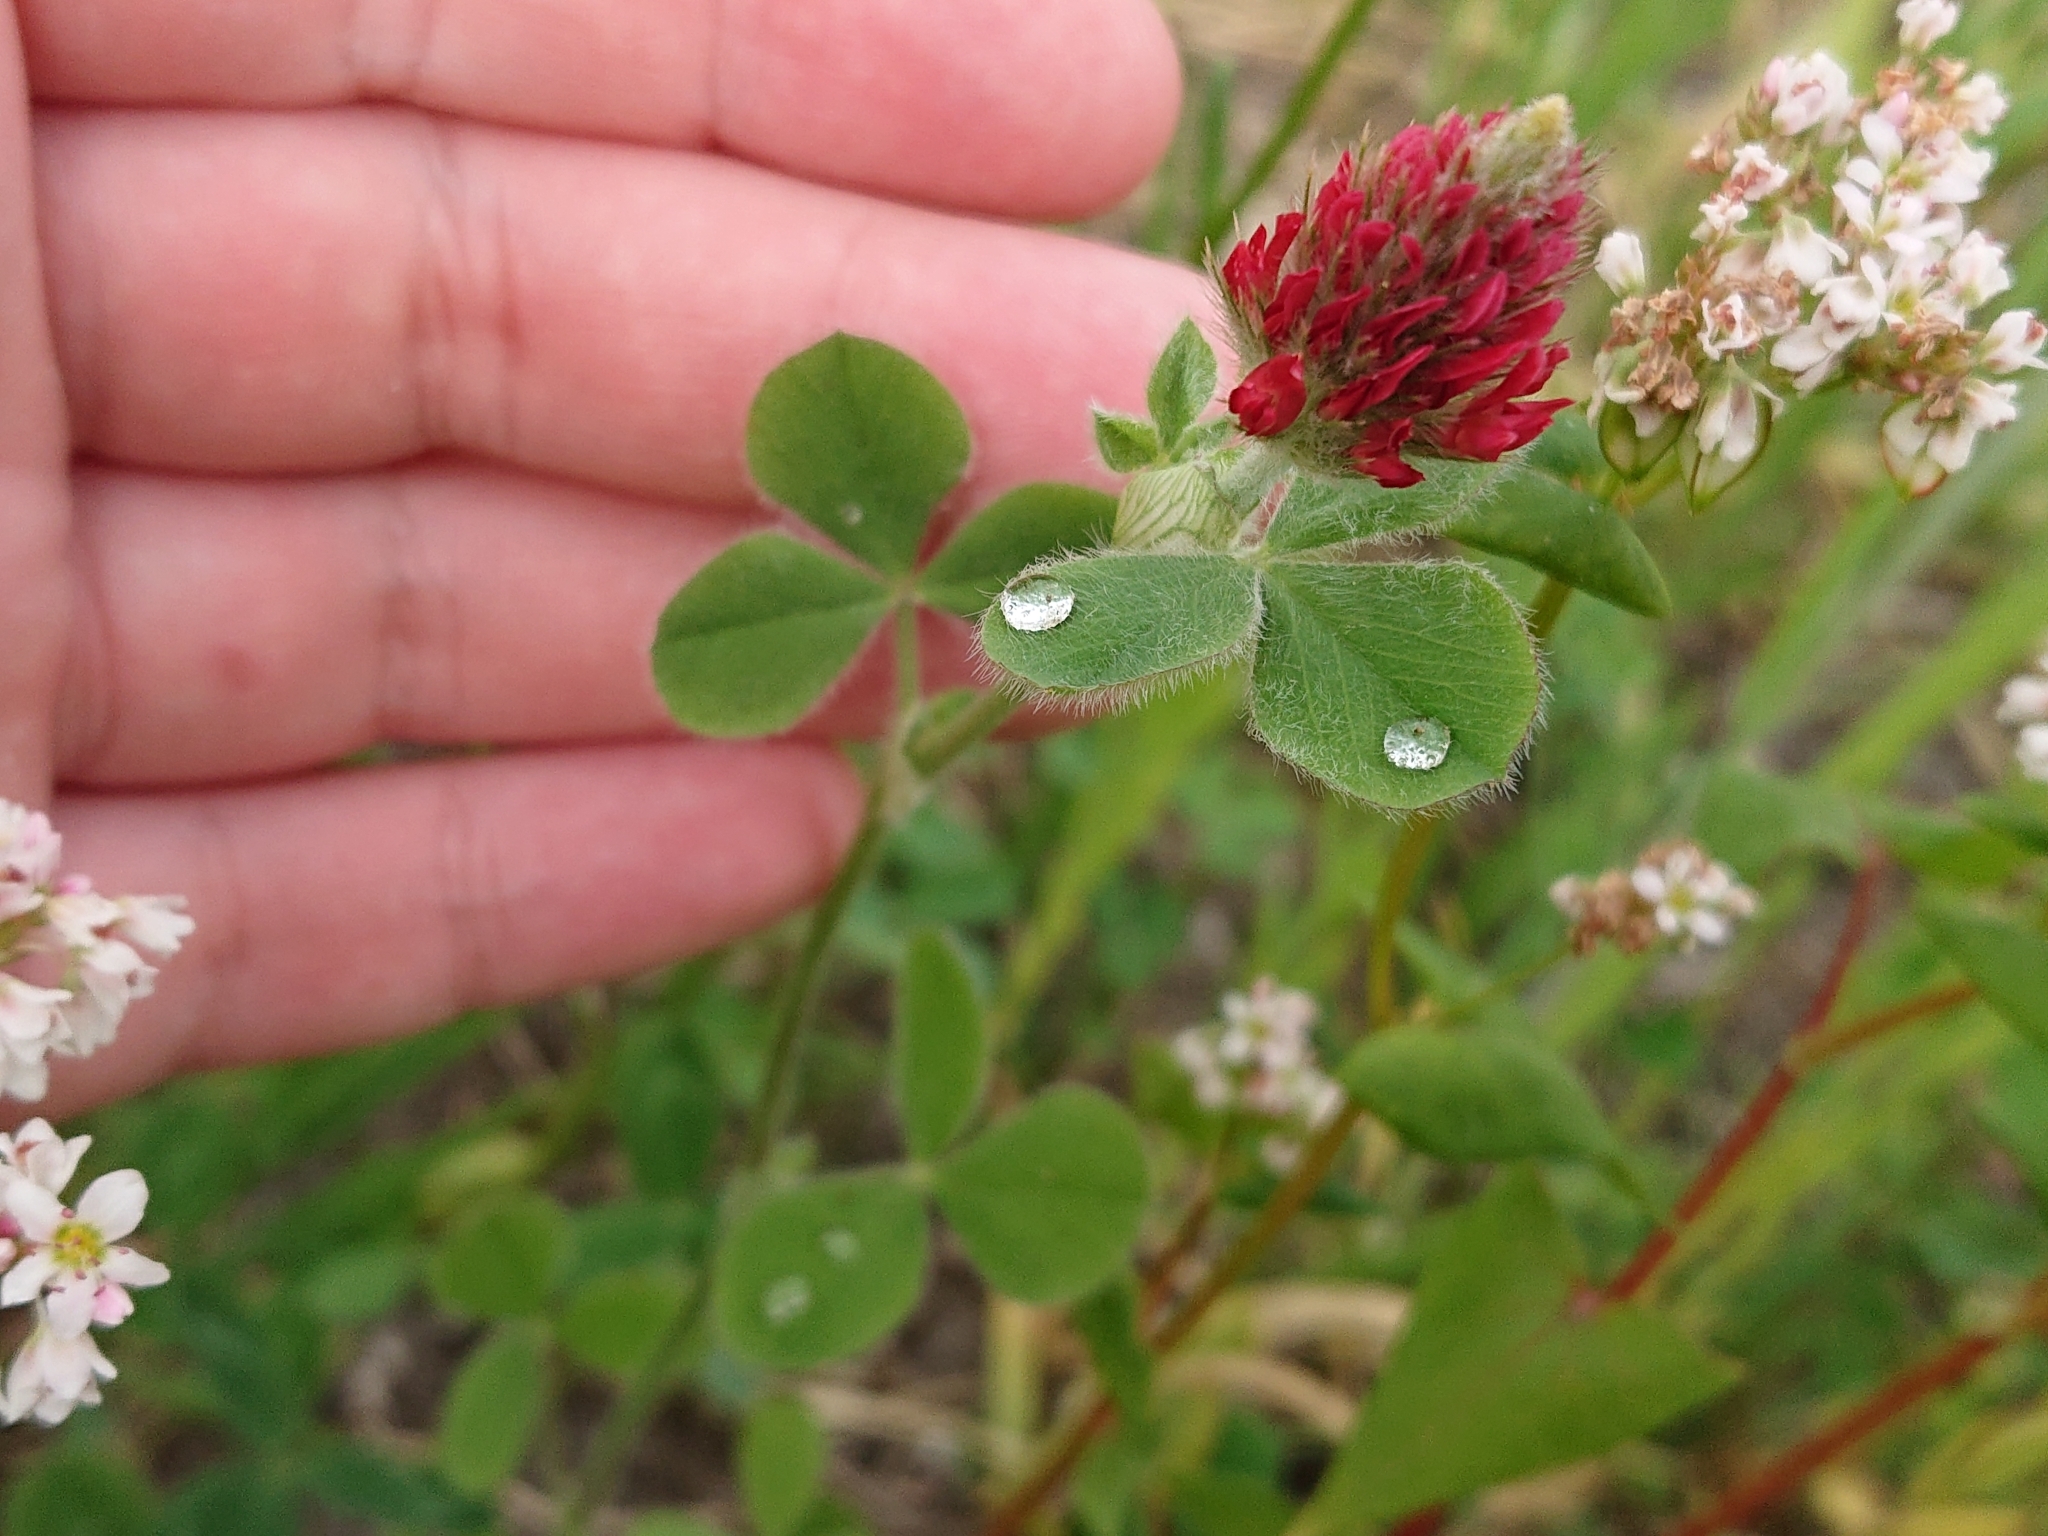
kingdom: Plantae
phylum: Tracheophyta
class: Magnoliopsida
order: Fabales
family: Fabaceae
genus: Trifolium
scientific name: Trifolium incarnatum
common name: Crimson clover
